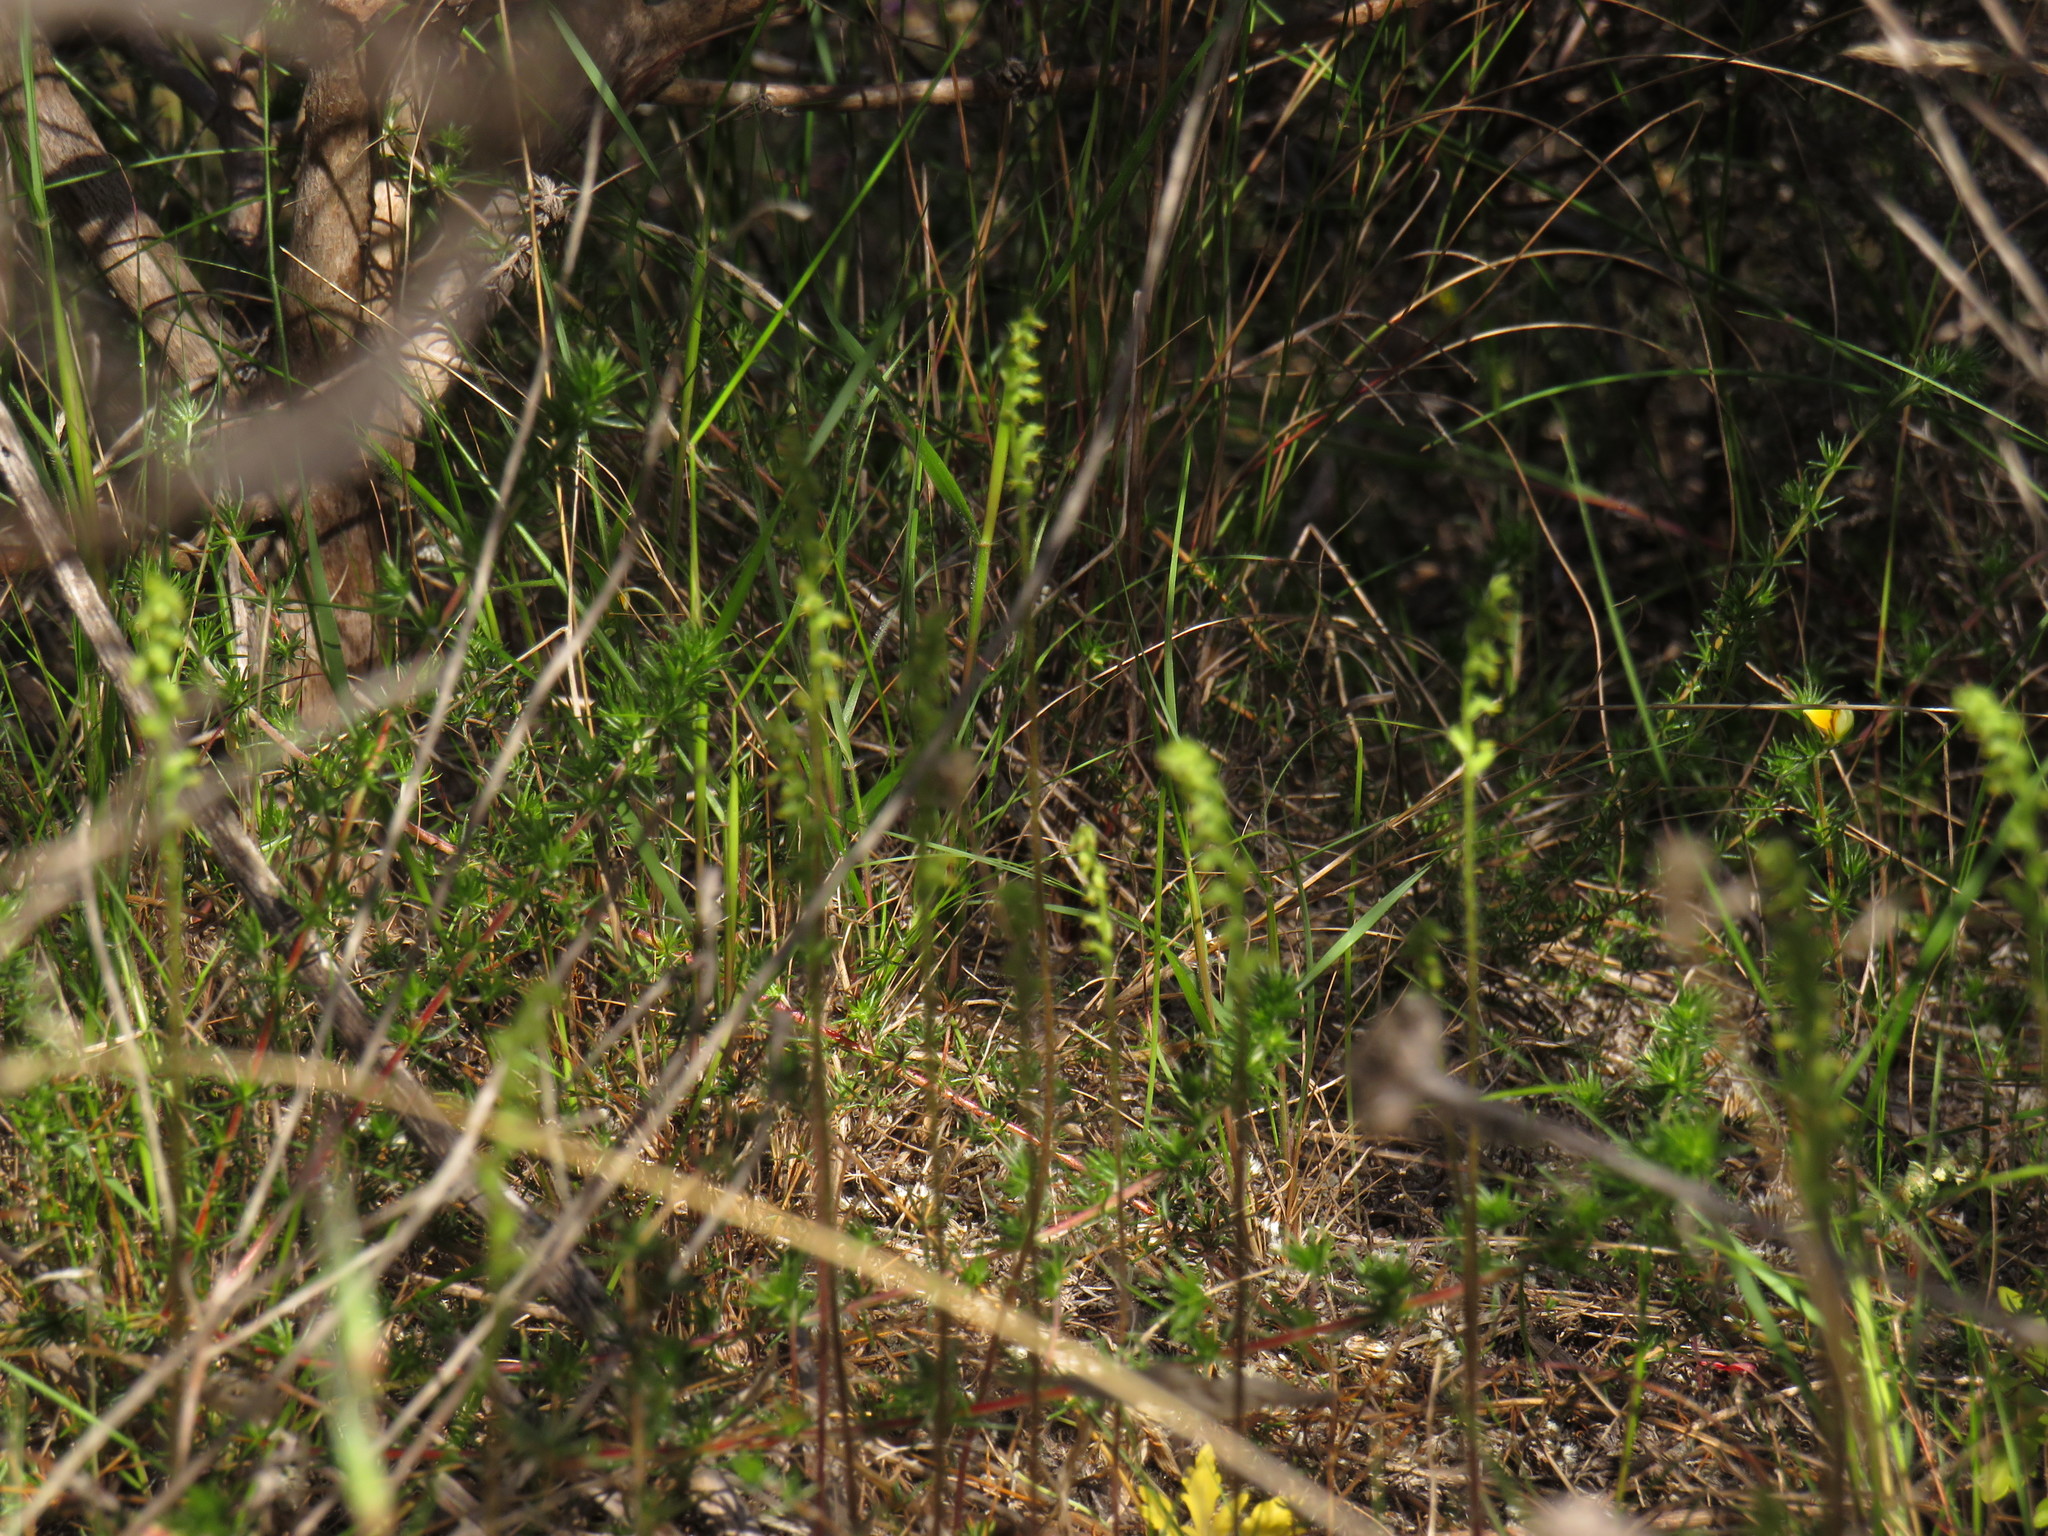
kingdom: Plantae
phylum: Tracheophyta
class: Liliopsida
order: Asparagales
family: Orchidaceae
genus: Holothrix
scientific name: Holothrix villosa
